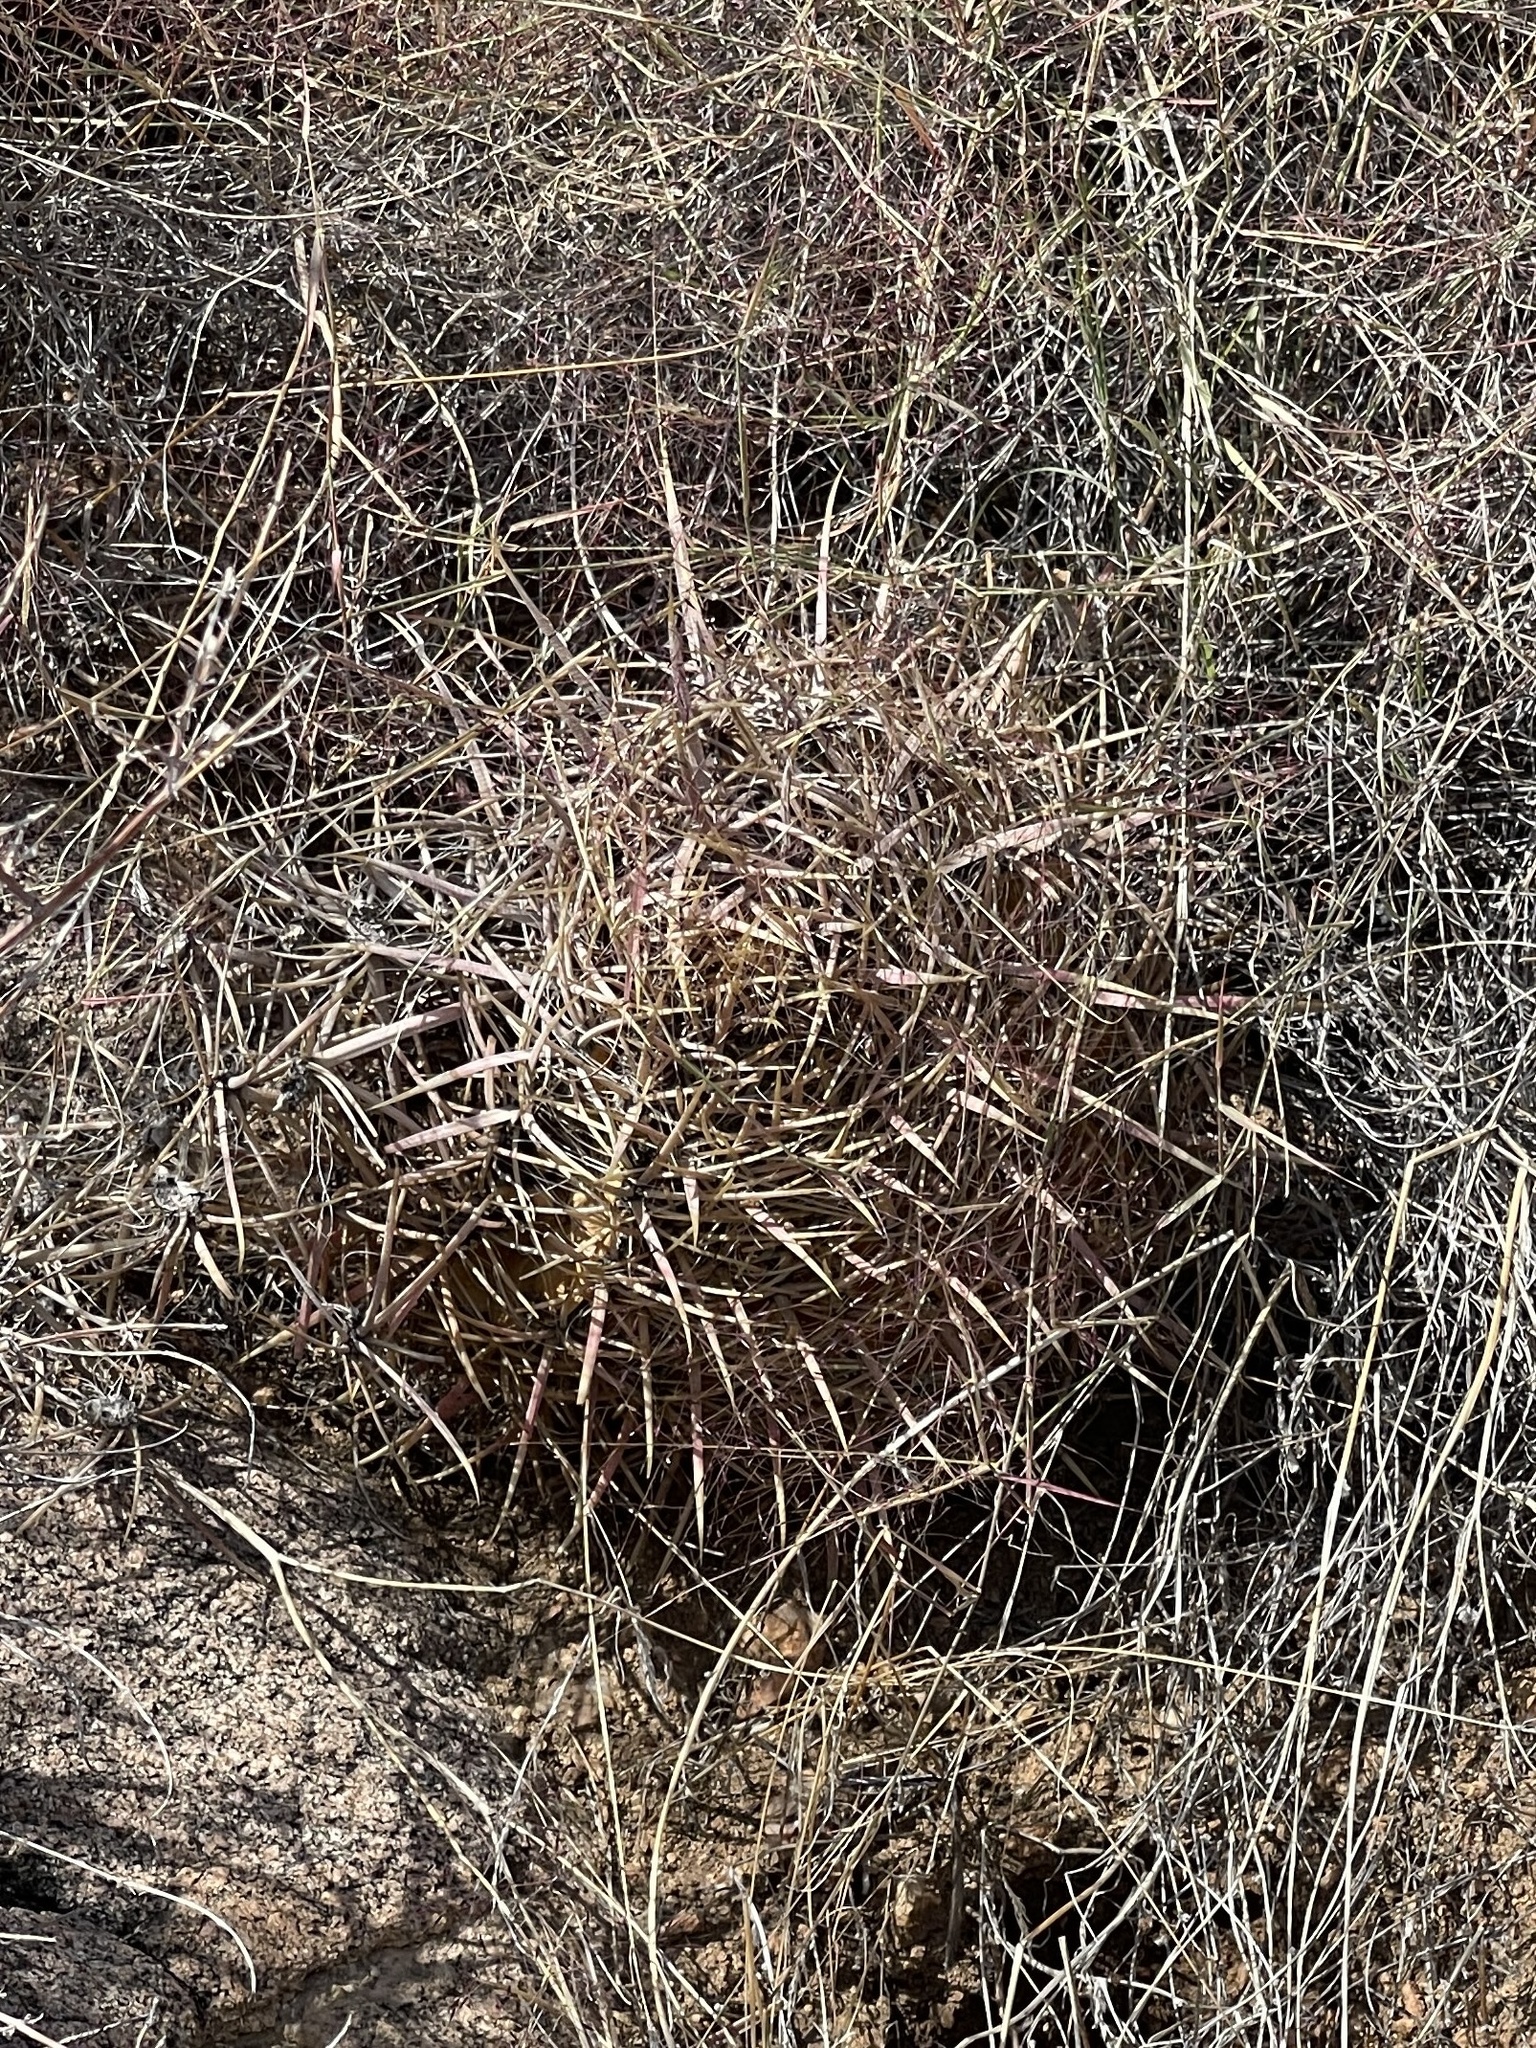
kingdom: Plantae
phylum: Tracheophyta
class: Magnoliopsida
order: Caryophyllales
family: Cactaceae
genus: Ferocactus
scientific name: Ferocactus cylindraceus
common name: California barrel cactus
